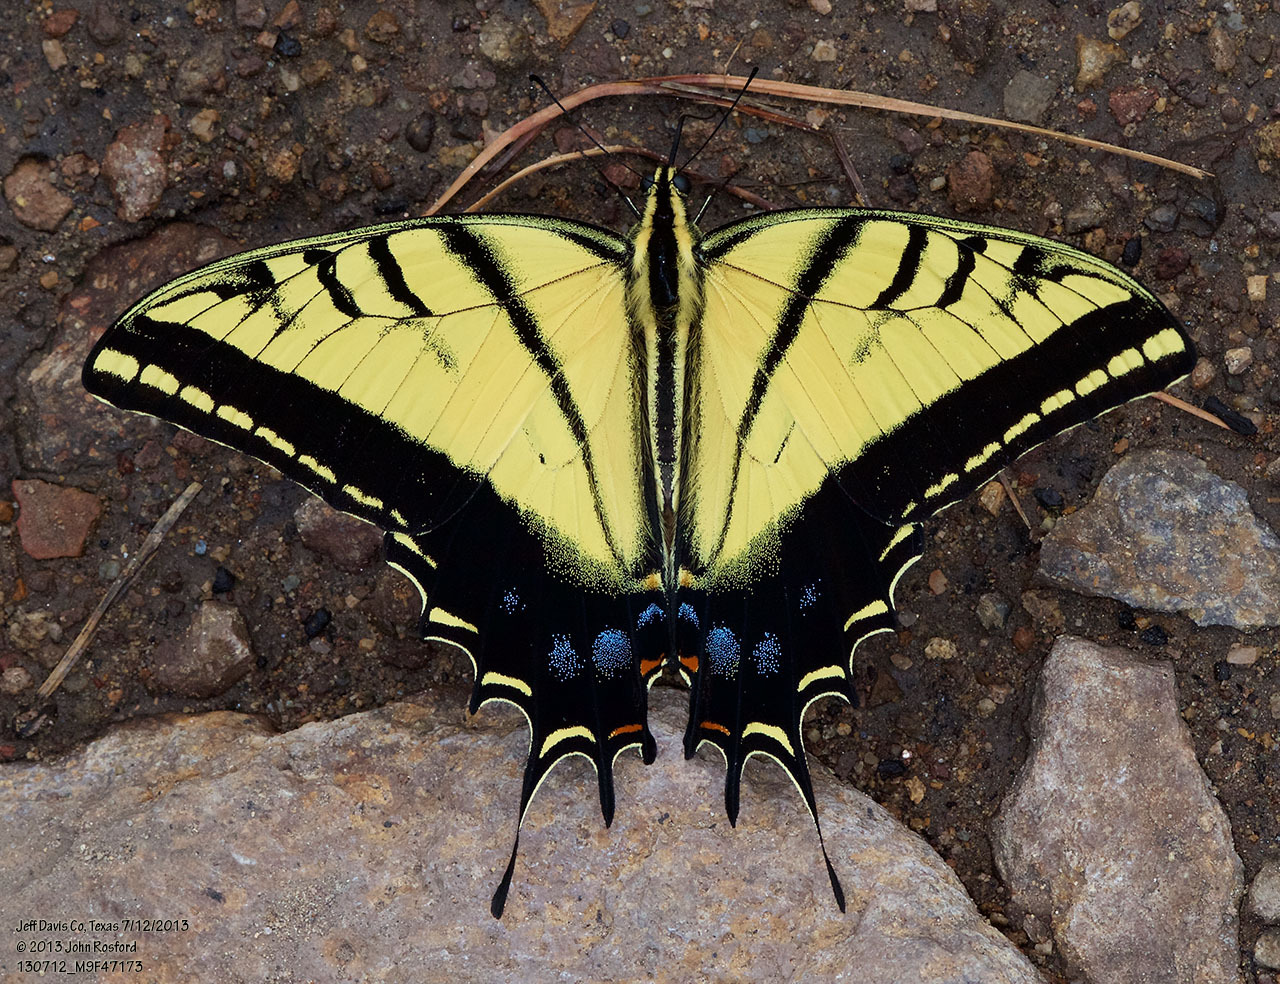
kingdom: Animalia
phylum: Arthropoda
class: Insecta
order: Lepidoptera
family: Papilionidae
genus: Papilio
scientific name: Papilio multicaudata
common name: Two-tailed tiger swallowtail
